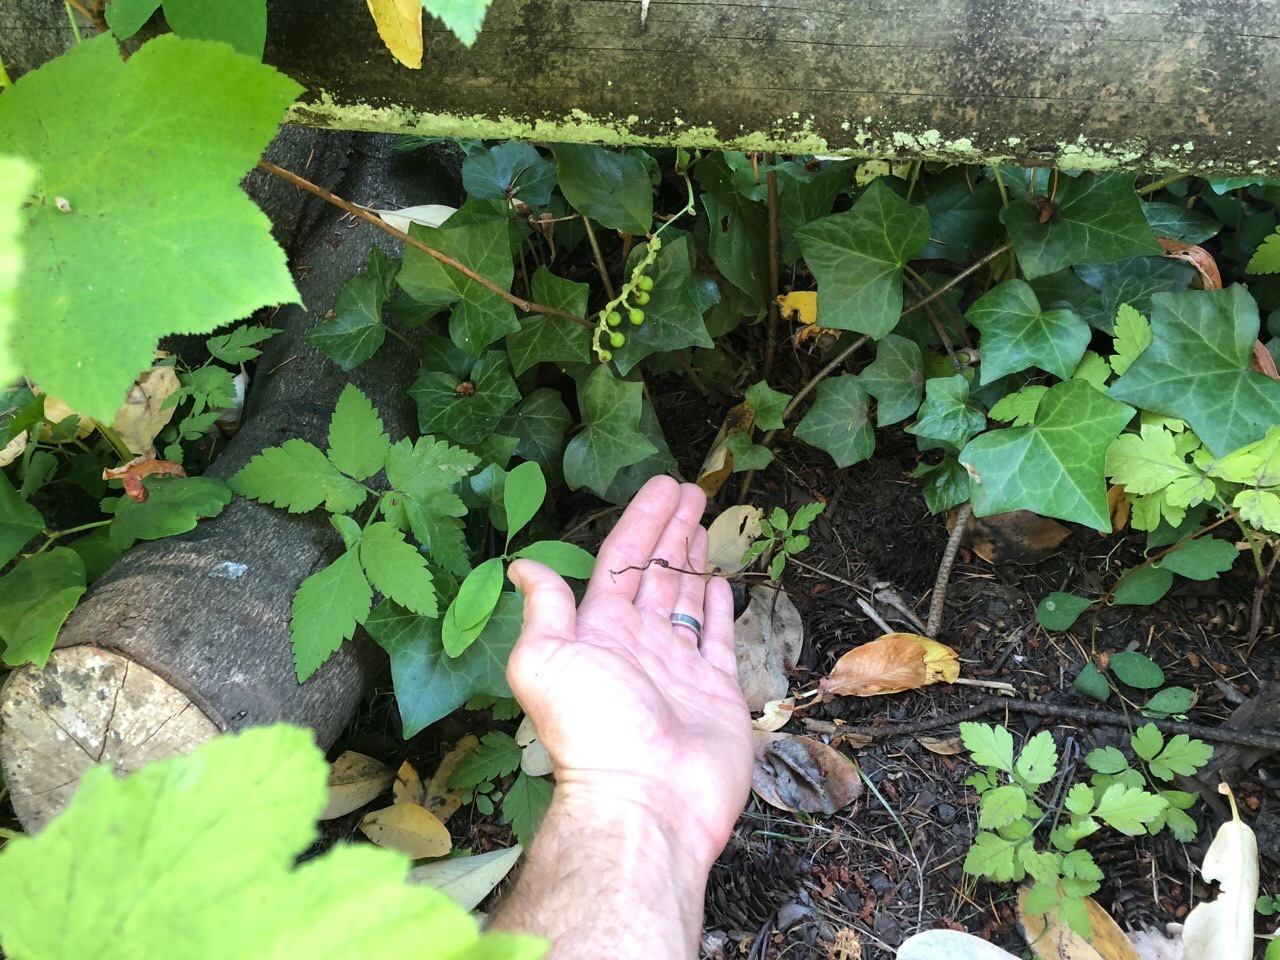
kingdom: Plantae
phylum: Tracheophyta
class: Liliopsida
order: Asparagales
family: Orchidaceae
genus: Cephalanthera
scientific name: Cephalanthera austiniae
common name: Phantom orchid
